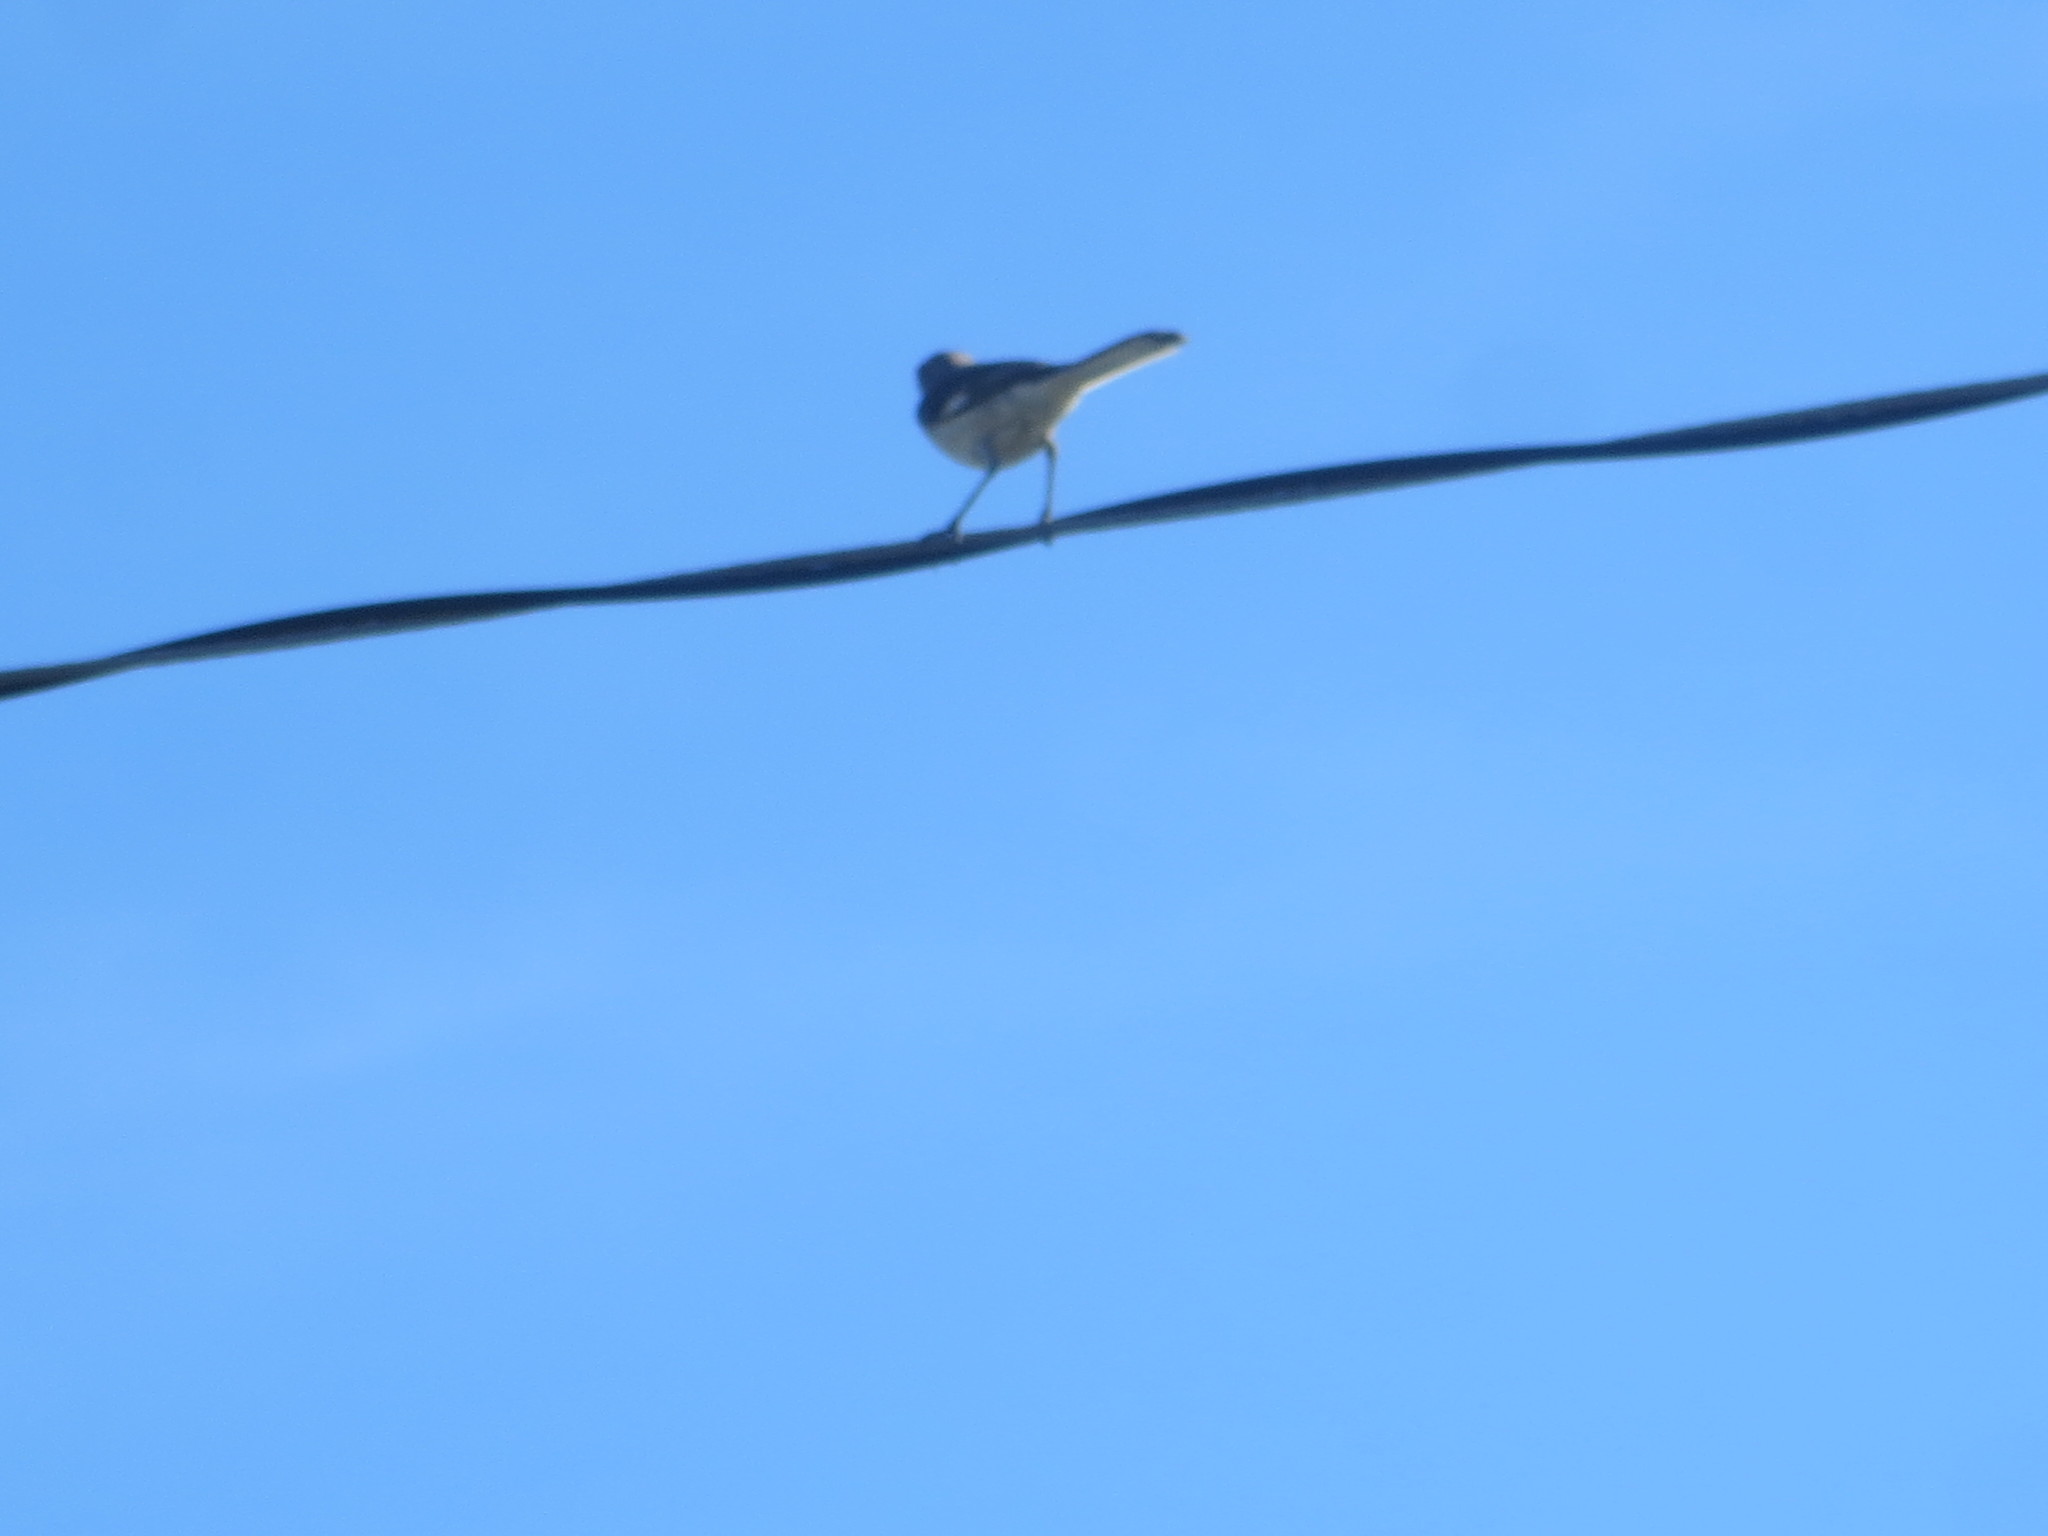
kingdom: Animalia
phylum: Chordata
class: Aves
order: Passeriformes
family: Mimidae
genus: Mimus
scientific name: Mimus polyglottos
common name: Northern mockingbird
